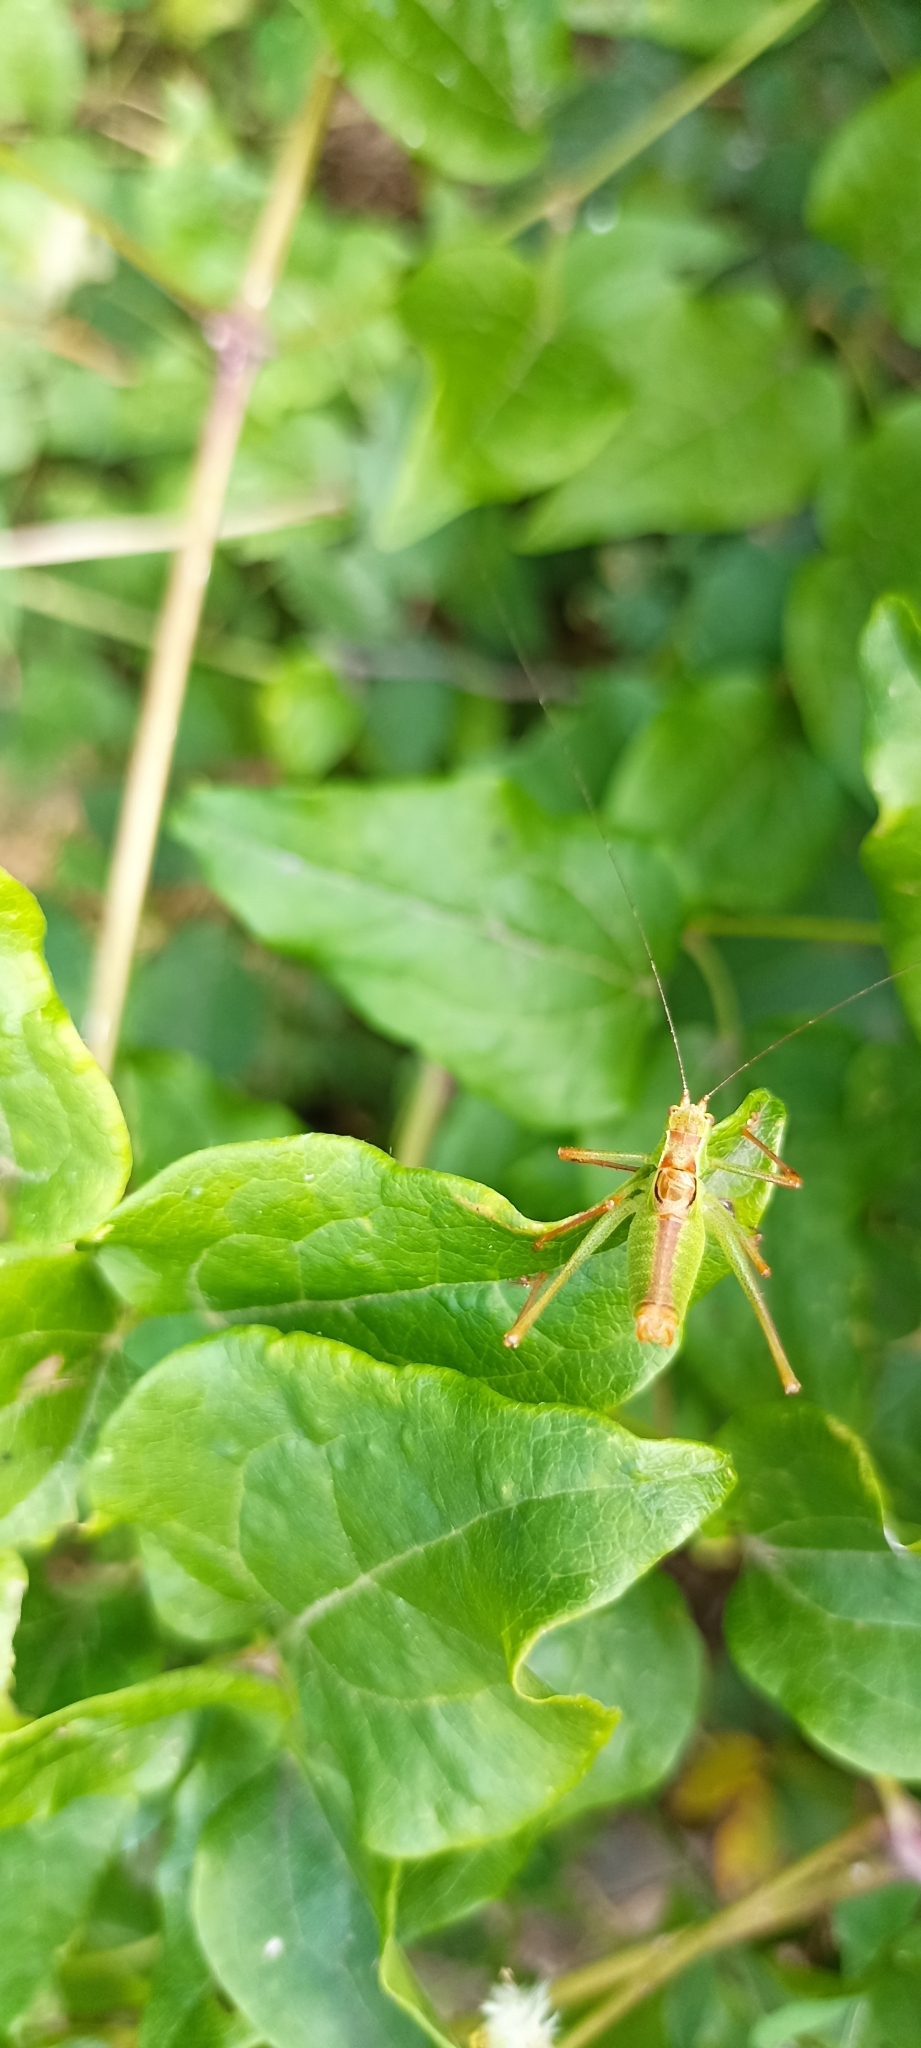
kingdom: Animalia
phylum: Arthropoda
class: Insecta
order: Orthoptera
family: Tettigoniidae
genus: Leptophyes
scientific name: Leptophyes punctatissima
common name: Speckled bush-cricket
